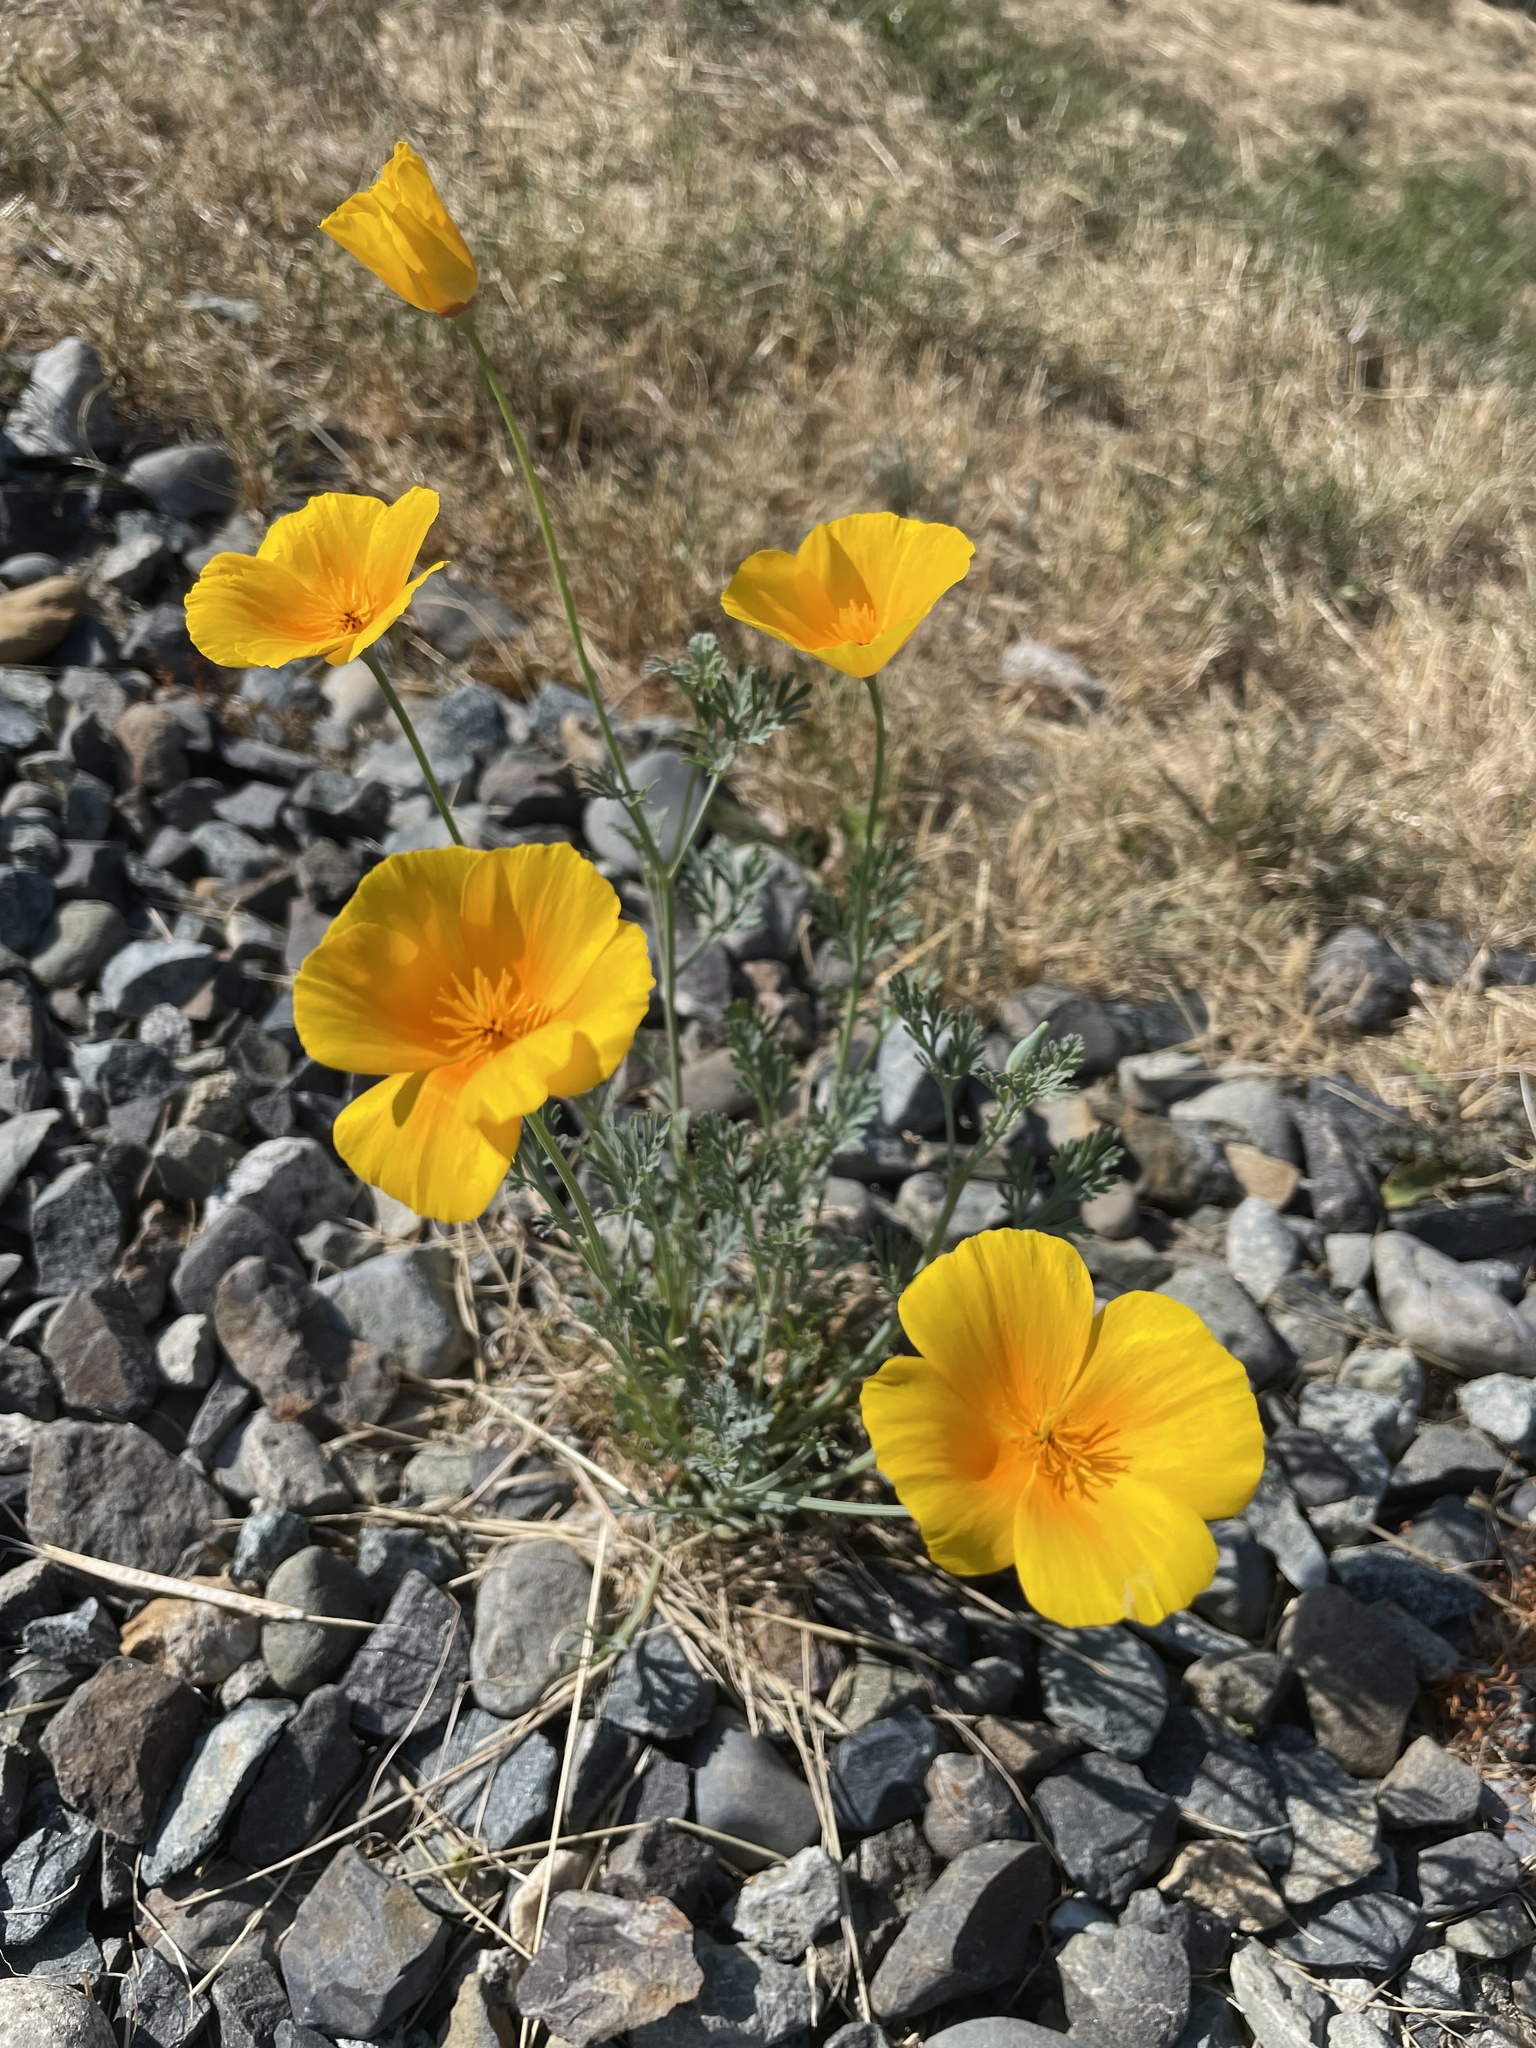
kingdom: Plantae
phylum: Tracheophyta
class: Magnoliopsida
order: Ranunculales
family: Papaveraceae
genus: Eschscholzia
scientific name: Eschscholzia californica
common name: California poppy
